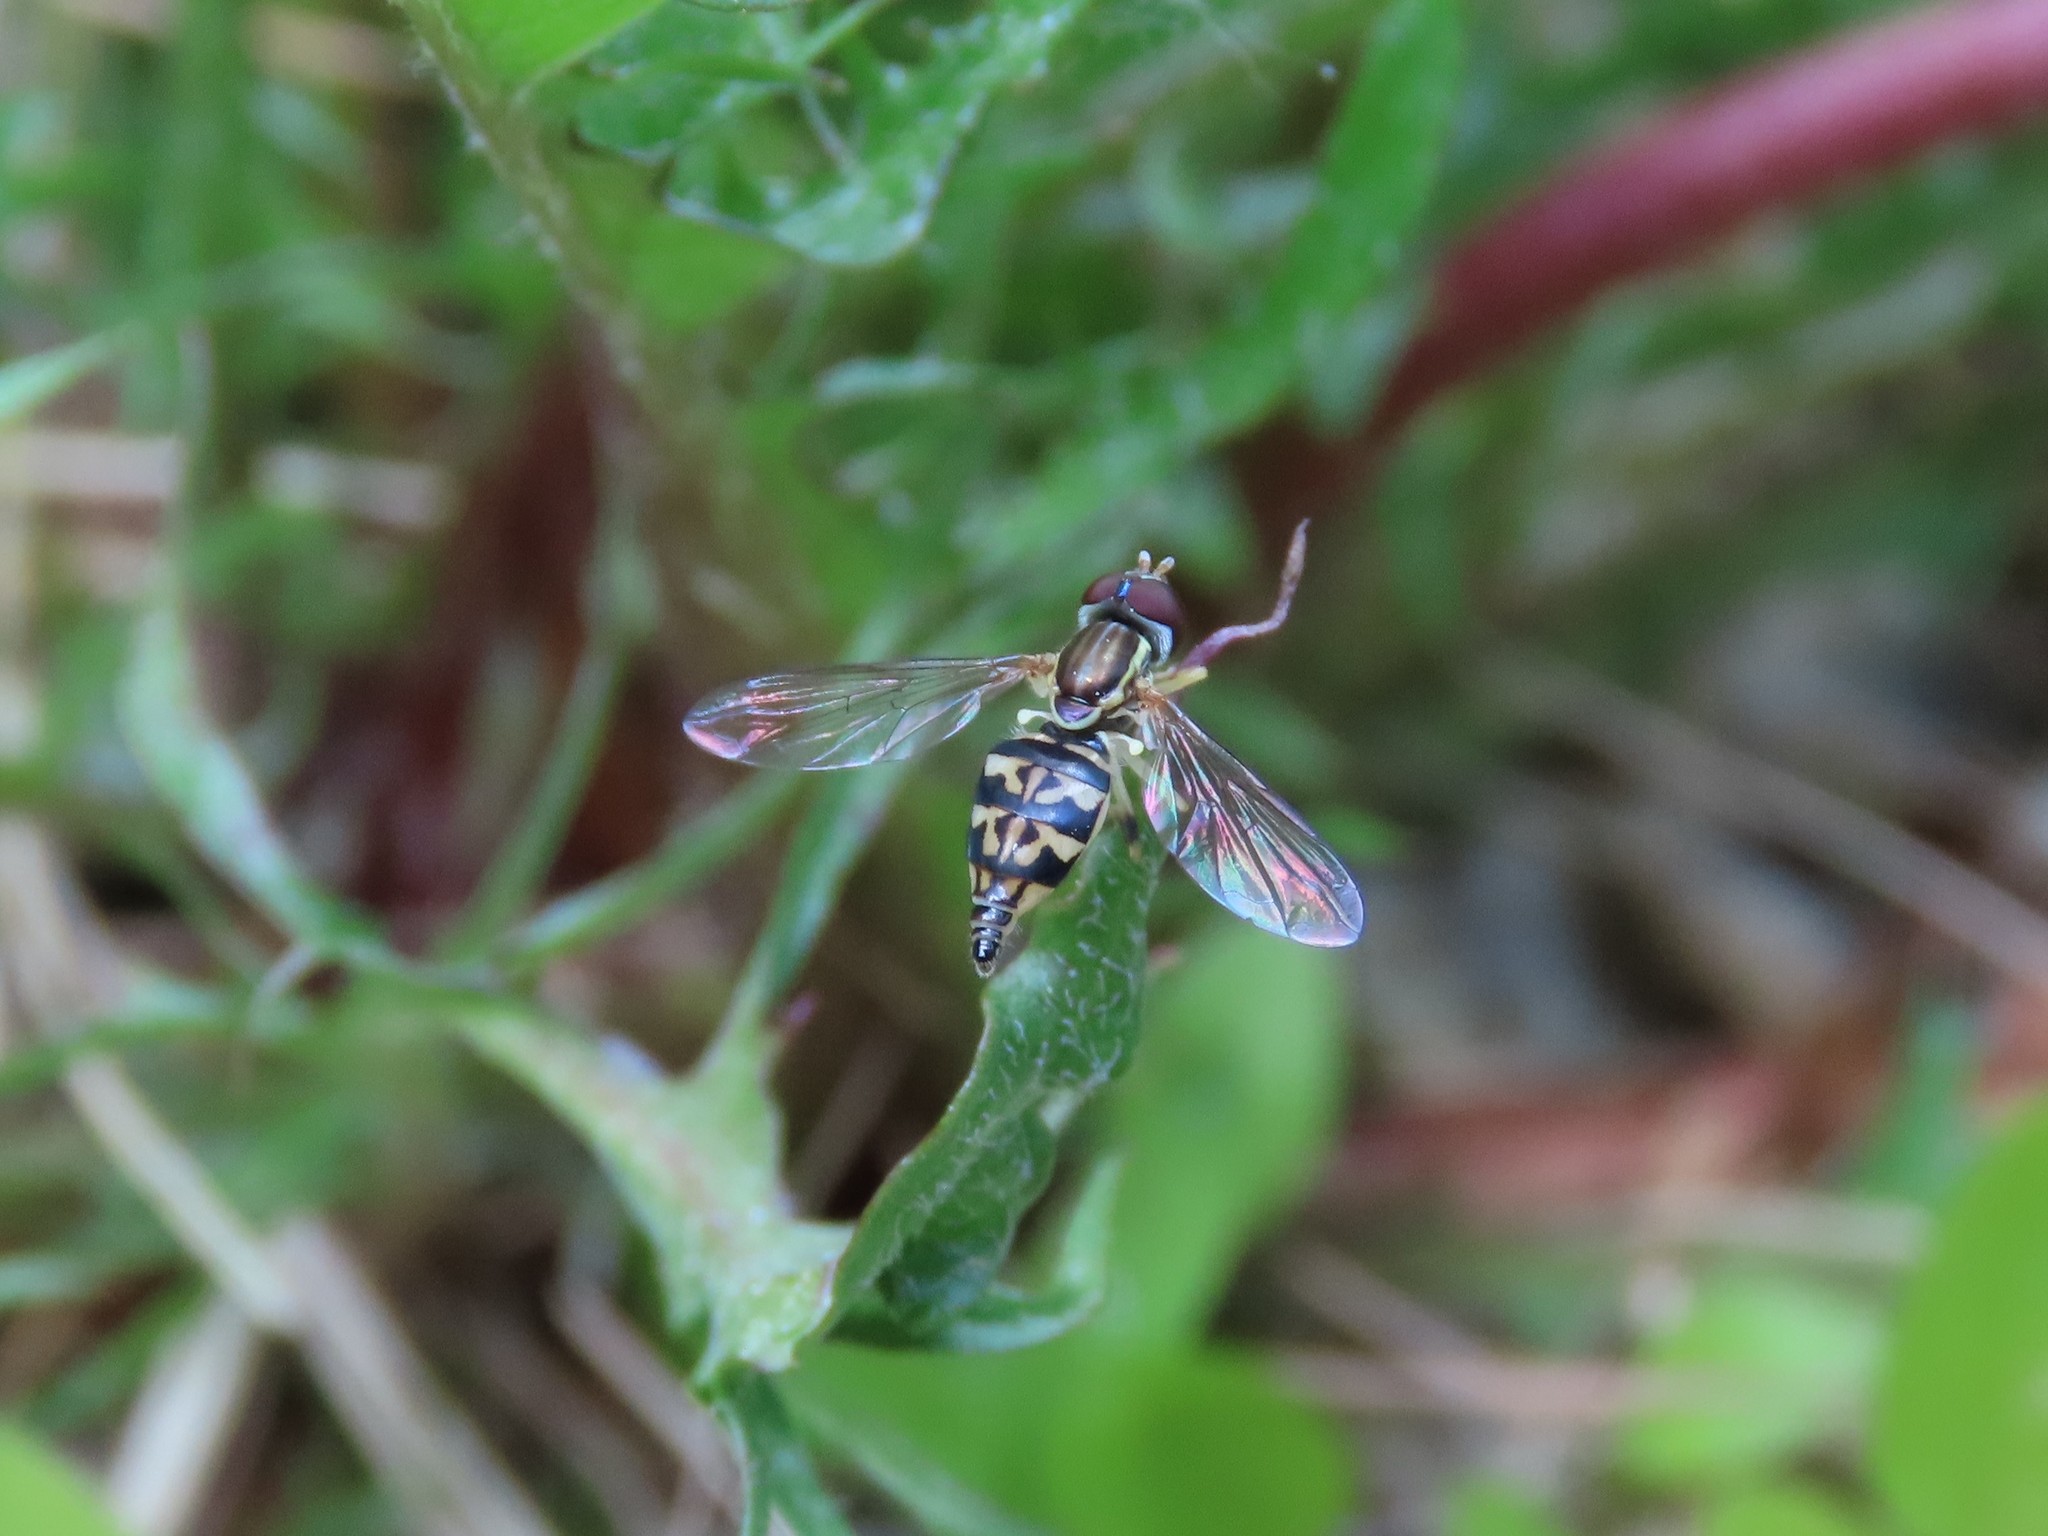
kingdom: Animalia
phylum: Arthropoda
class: Insecta
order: Diptera
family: Syrphidae
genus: Toxomerus
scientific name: Toxomerus geminatus
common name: Eastern calligrapher
